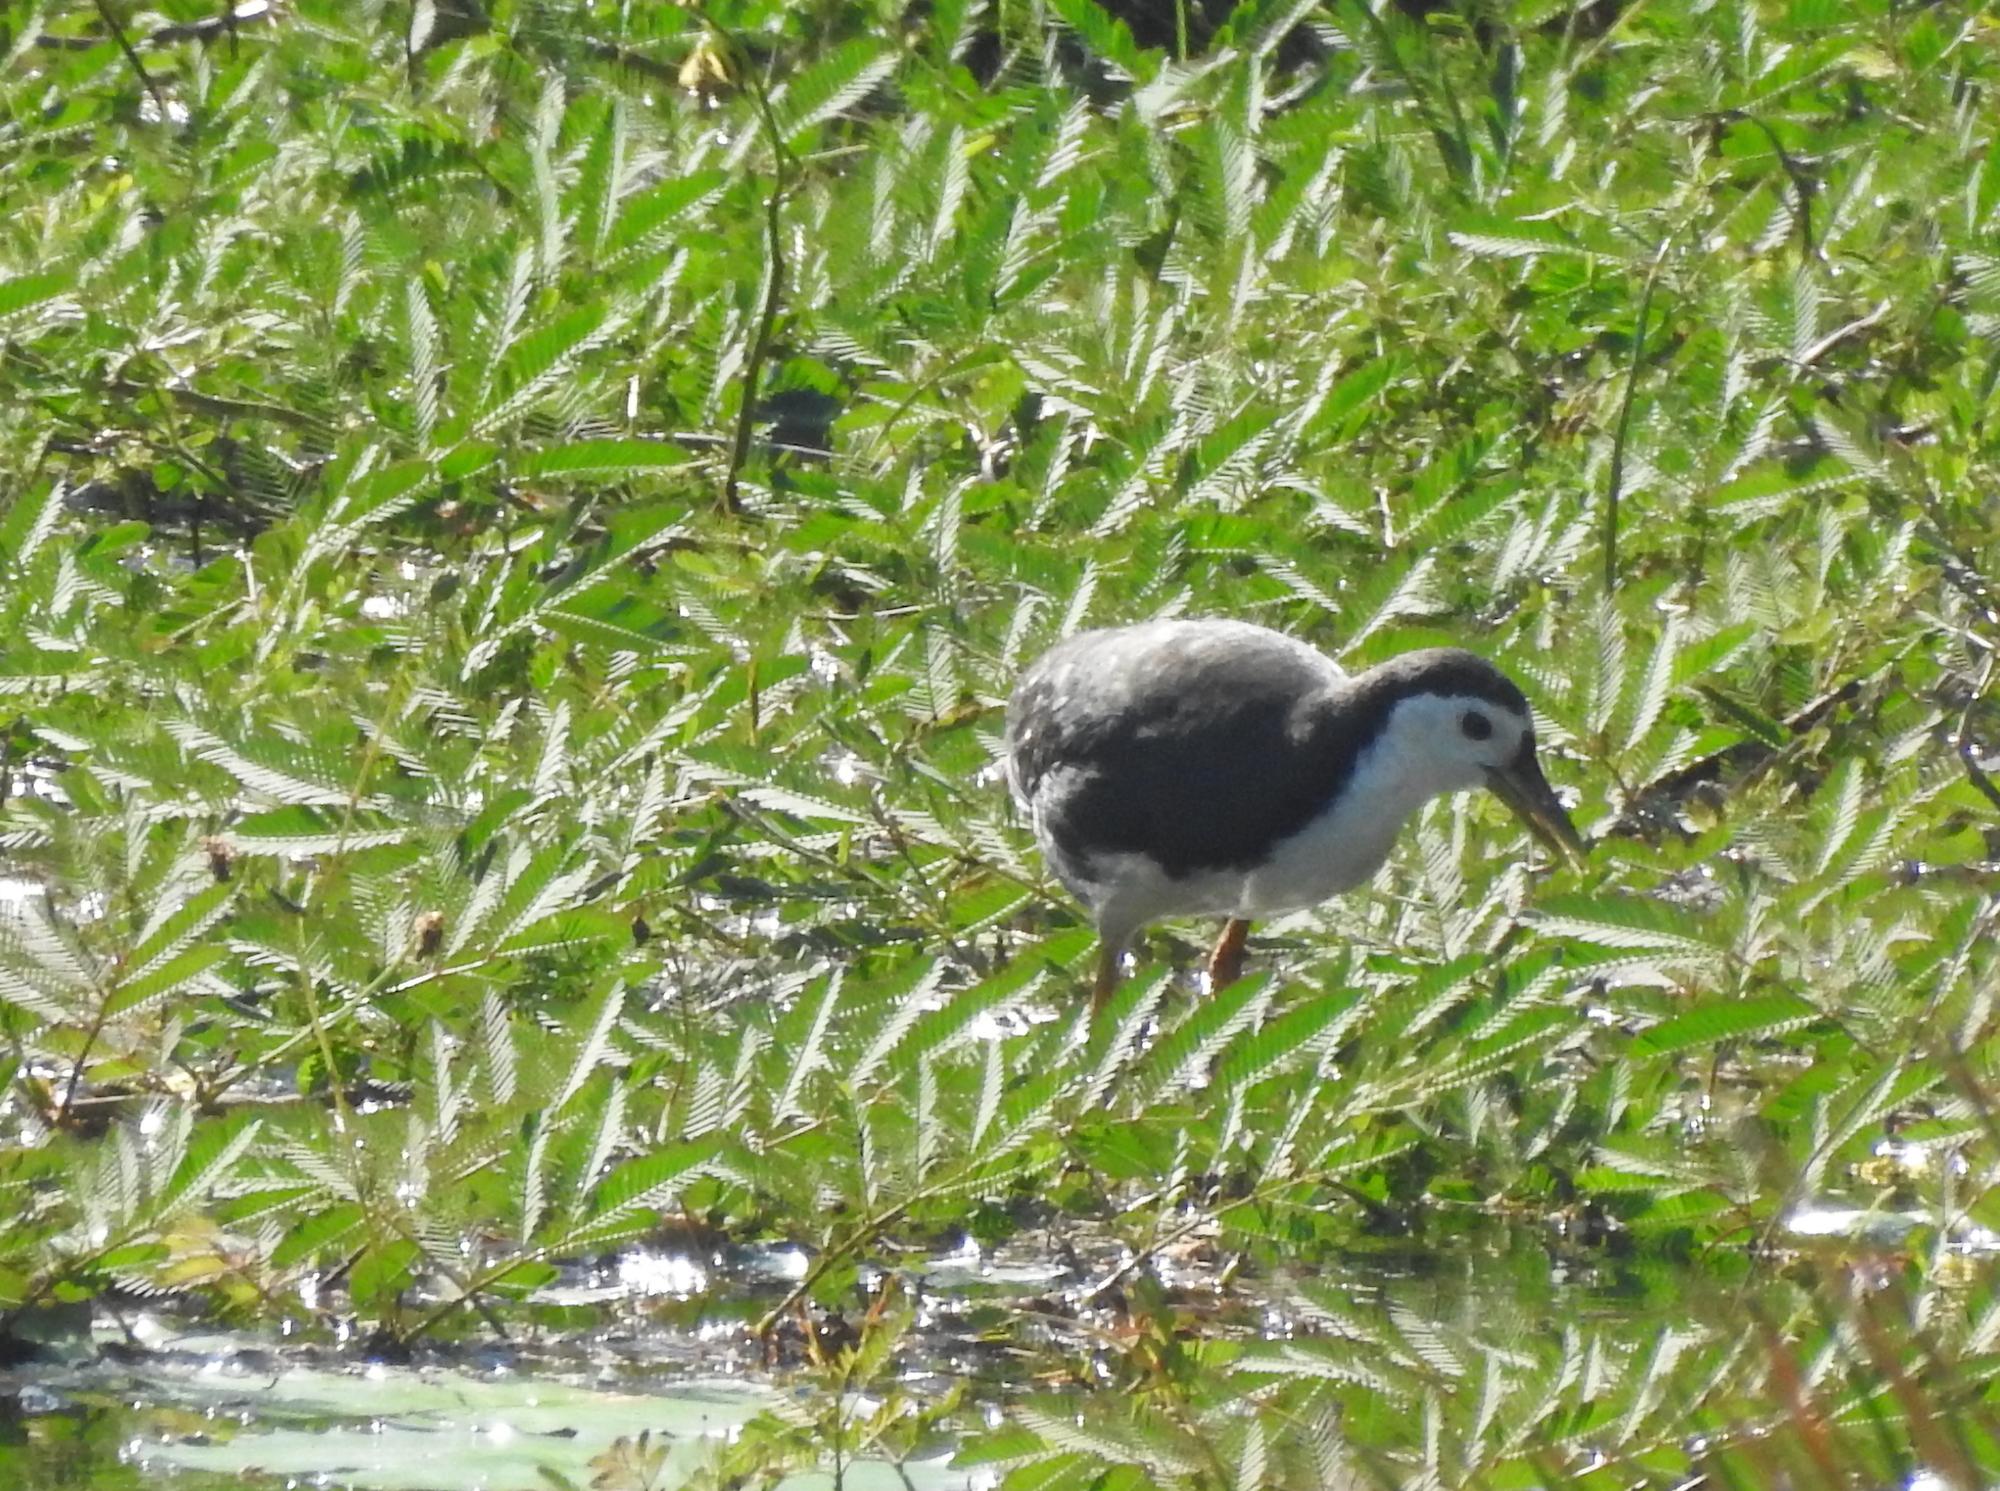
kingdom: Animalia
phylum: Chordata
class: Aves
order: Gruiformes
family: Rallidae
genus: Amaurornis
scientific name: Amaurornis phoenicurus
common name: White-breasted waterhen
